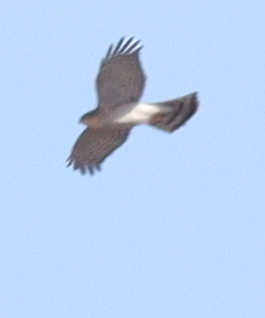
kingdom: Animalia
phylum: Chordata
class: Aves
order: Accipitriformes
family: Accipitridae
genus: Accipiter
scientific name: Accipiter nisus
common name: Eurasian sparrowhawk
